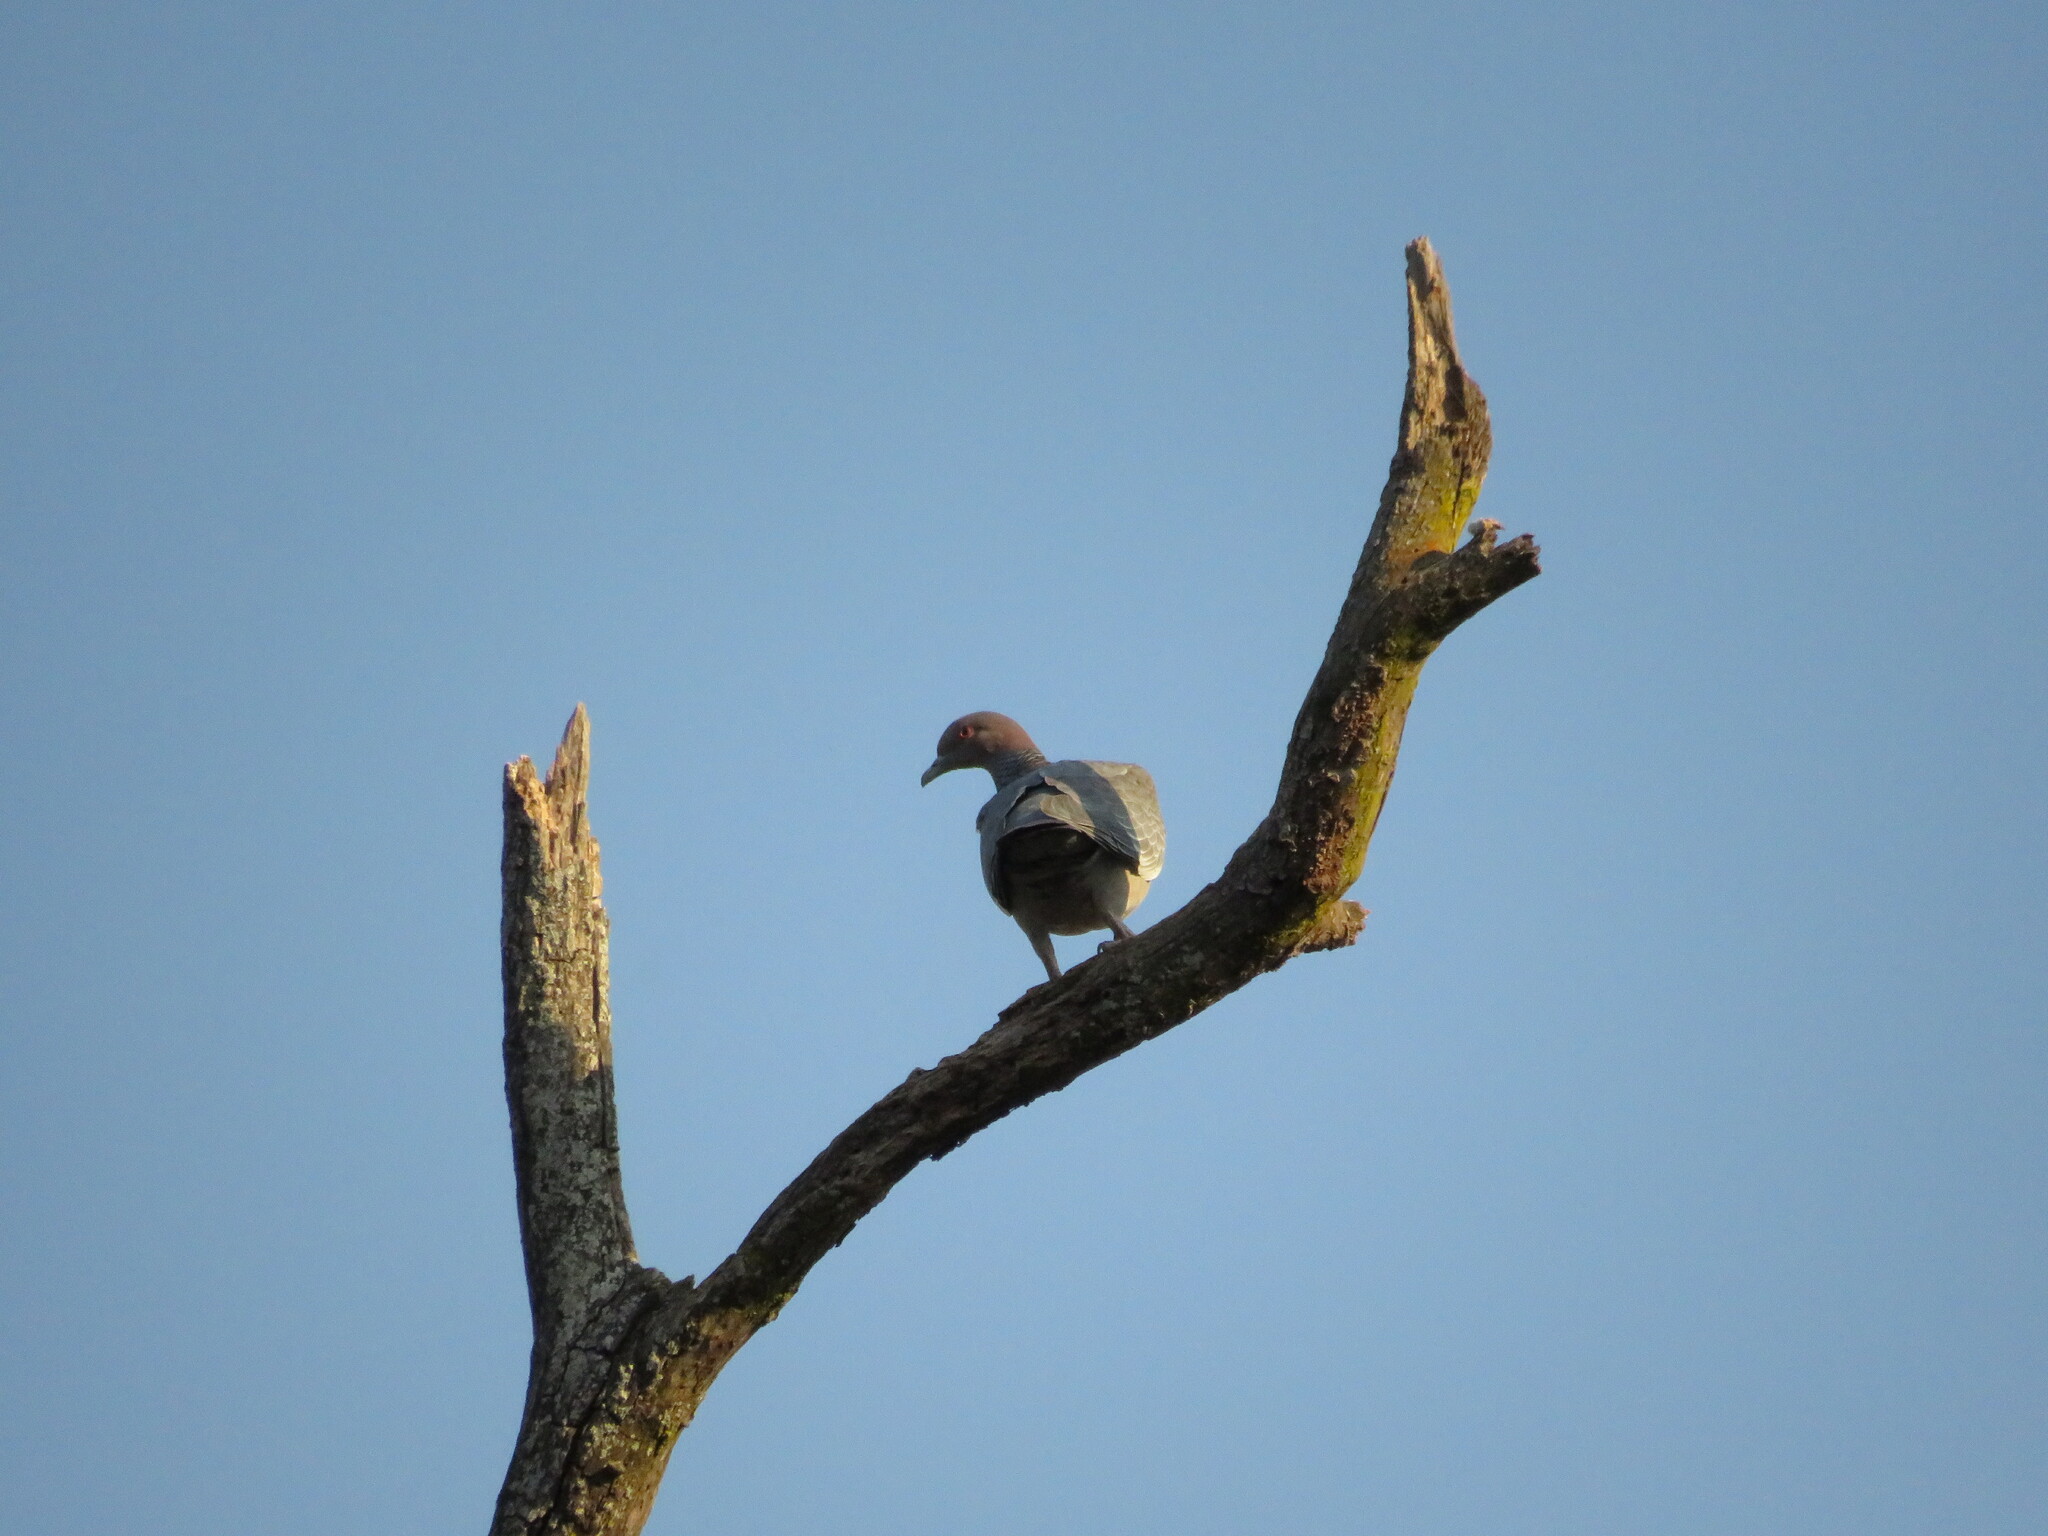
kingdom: Animalia
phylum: Chordata
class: Aves
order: Columbiformes
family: Columbidae
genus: Patagioenas
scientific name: Patagioenas picazuro
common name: Picazuro pigeon
